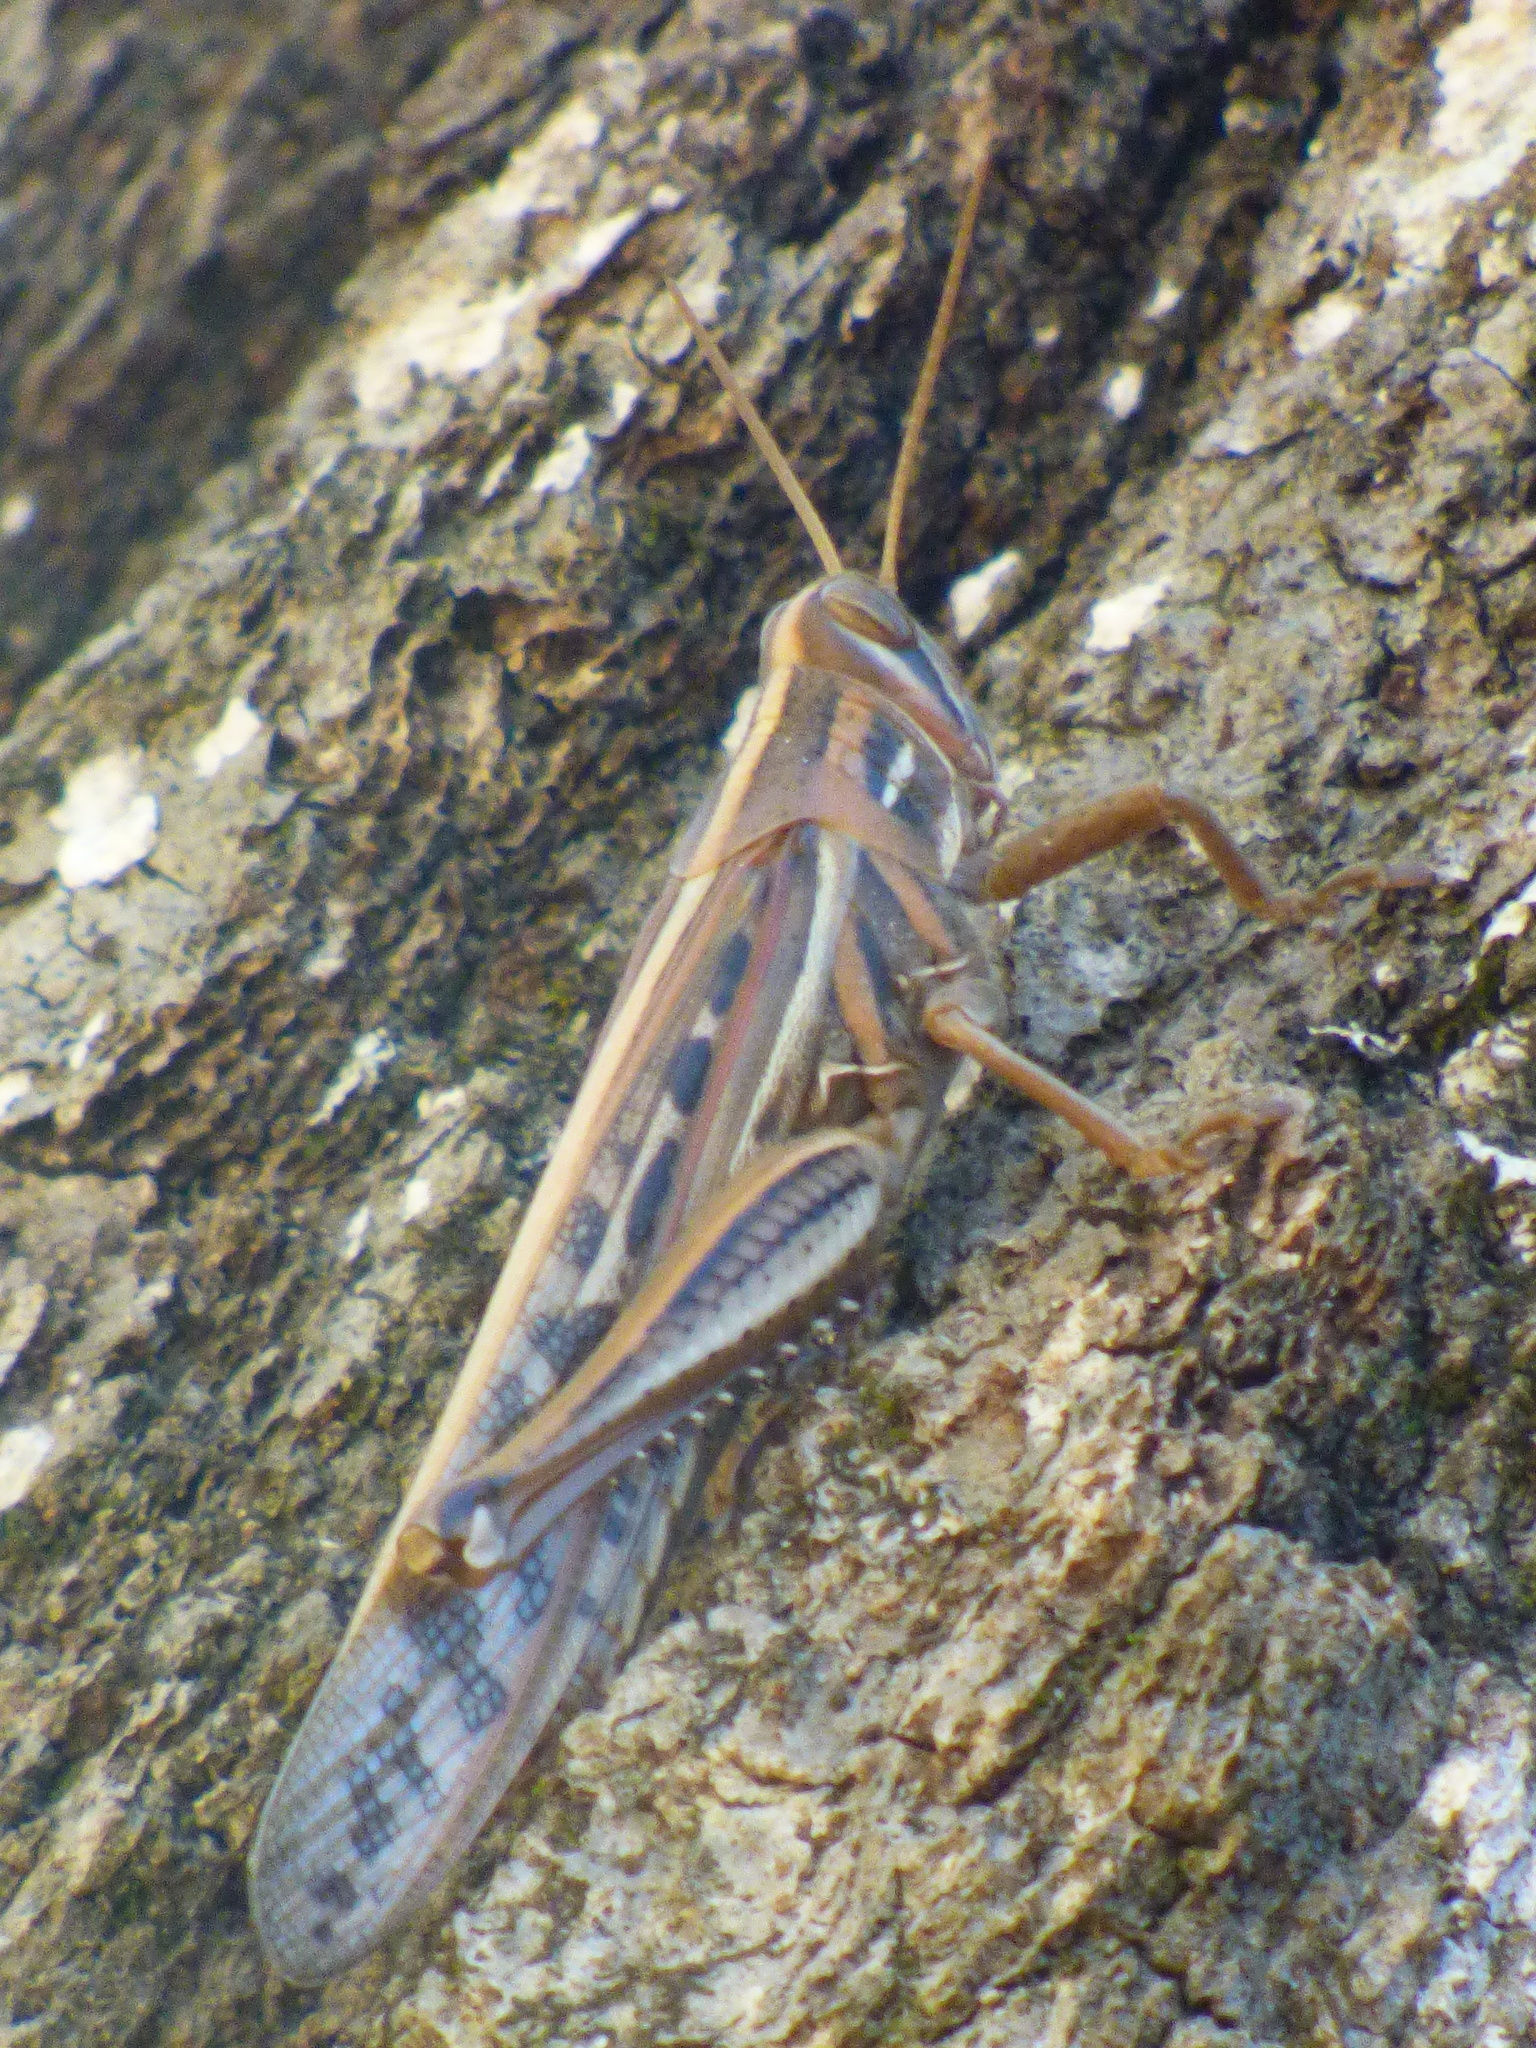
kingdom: Animalia
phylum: Arthropoda
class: Insecta
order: Orthoptera
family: Acrididae
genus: Schistocerca
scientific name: Schistocerca americana
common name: American bird locust
